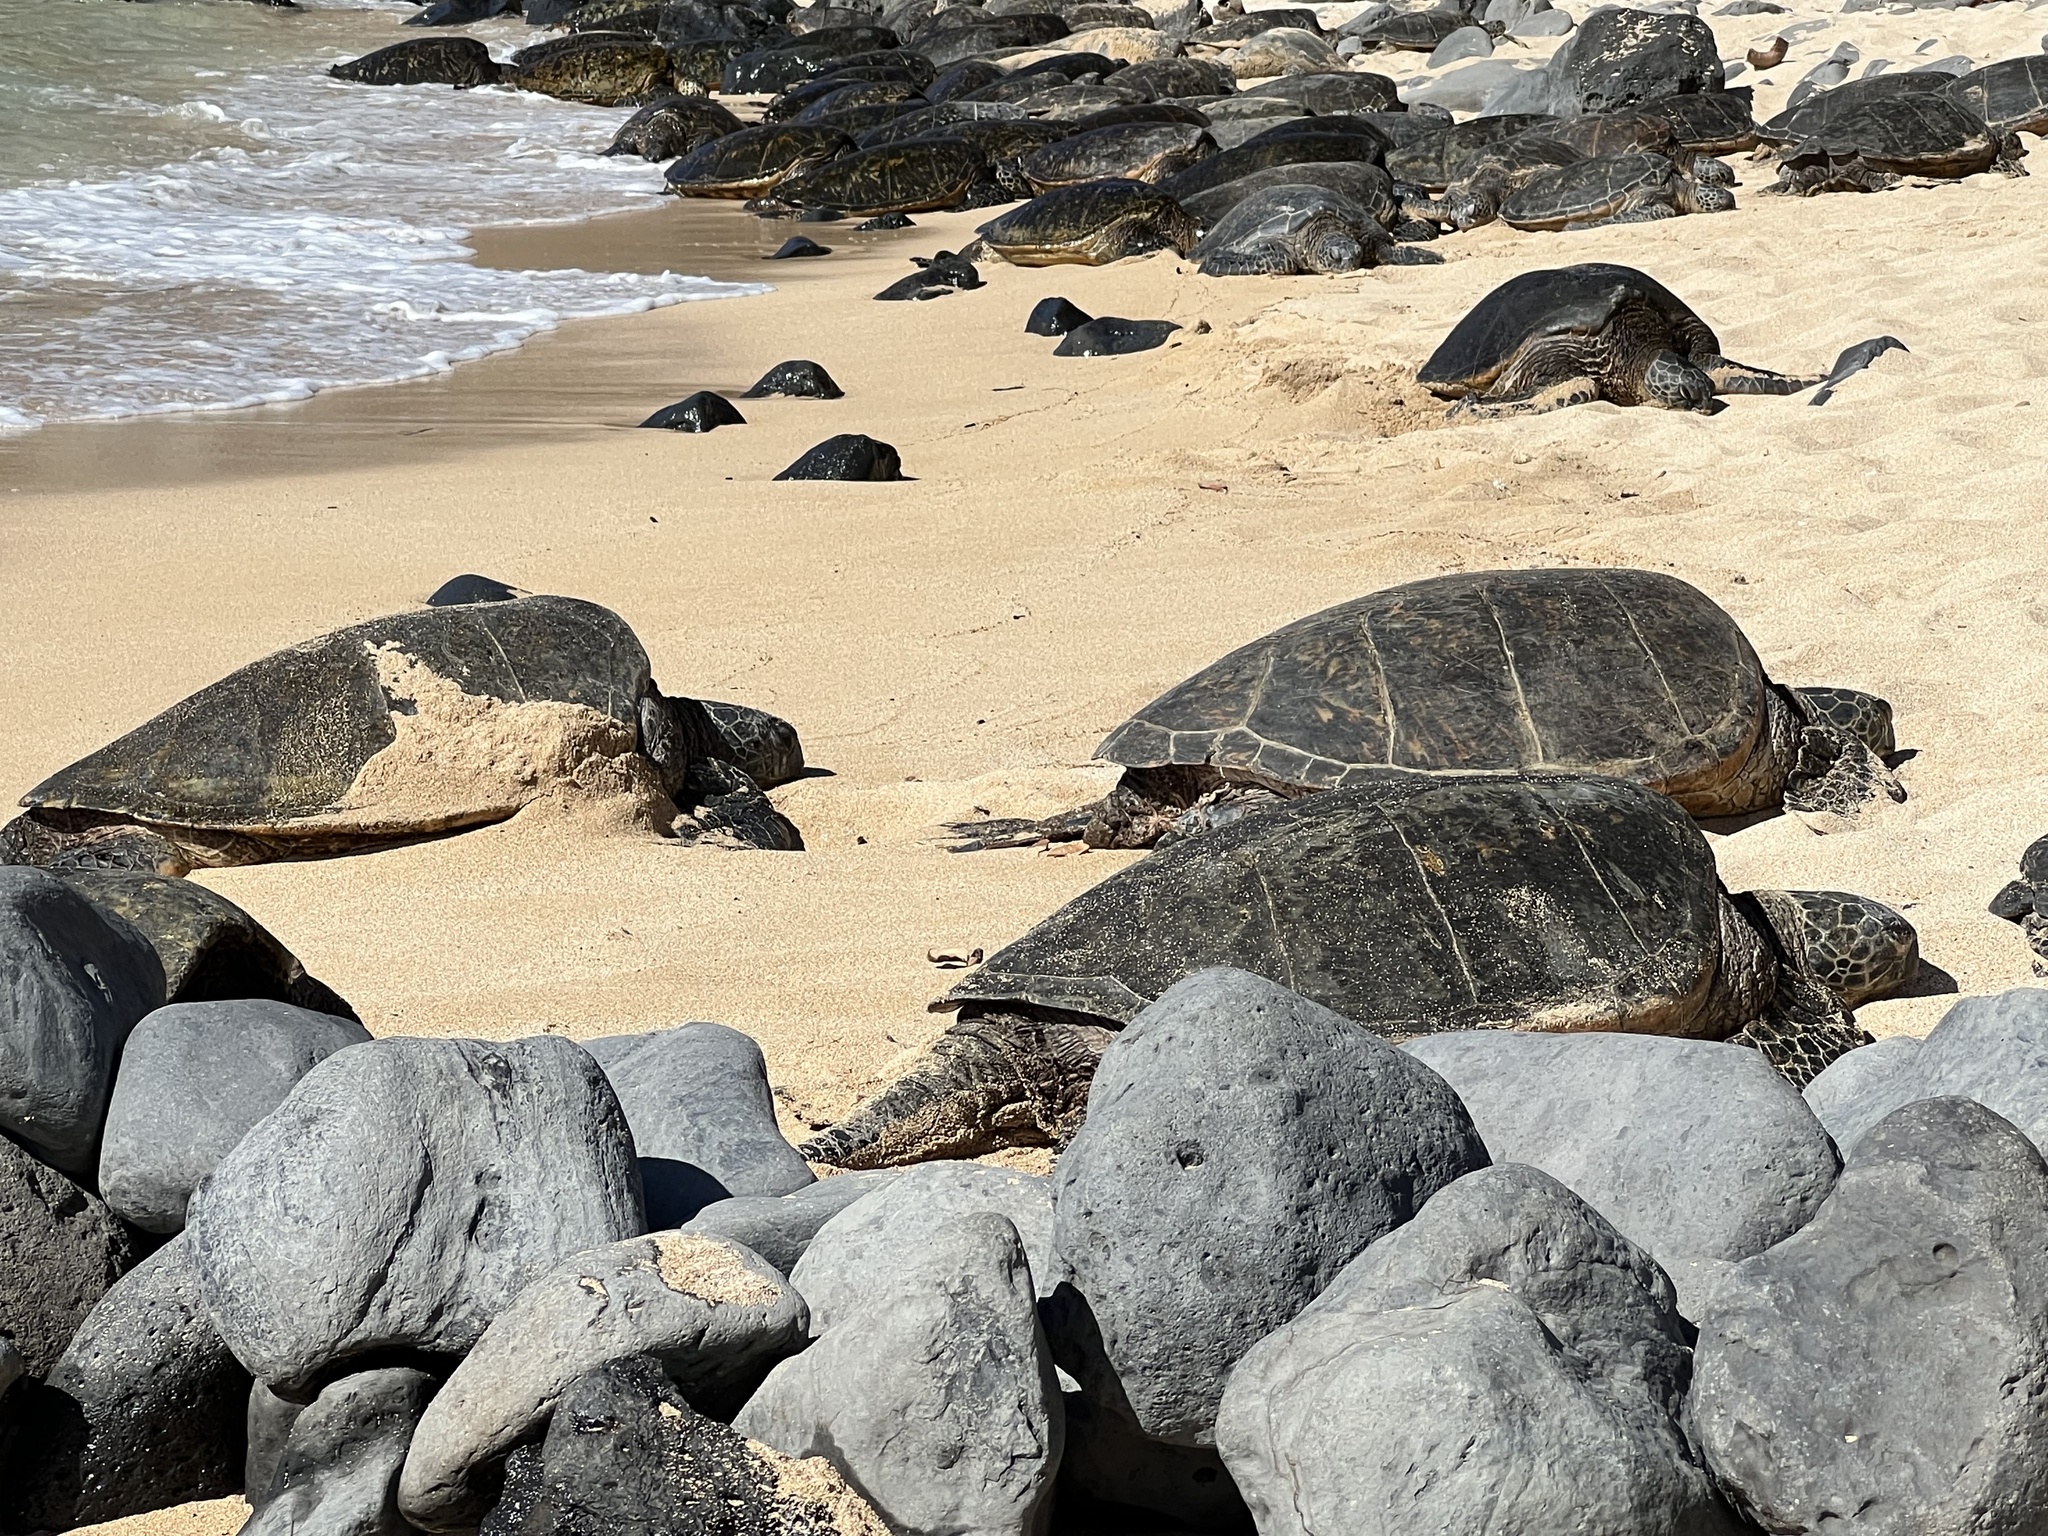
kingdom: Animalia
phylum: Chordata
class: Testudines
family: Cheloniidae
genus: Chelonia
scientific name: Chelonia mydas
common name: Green turtle
